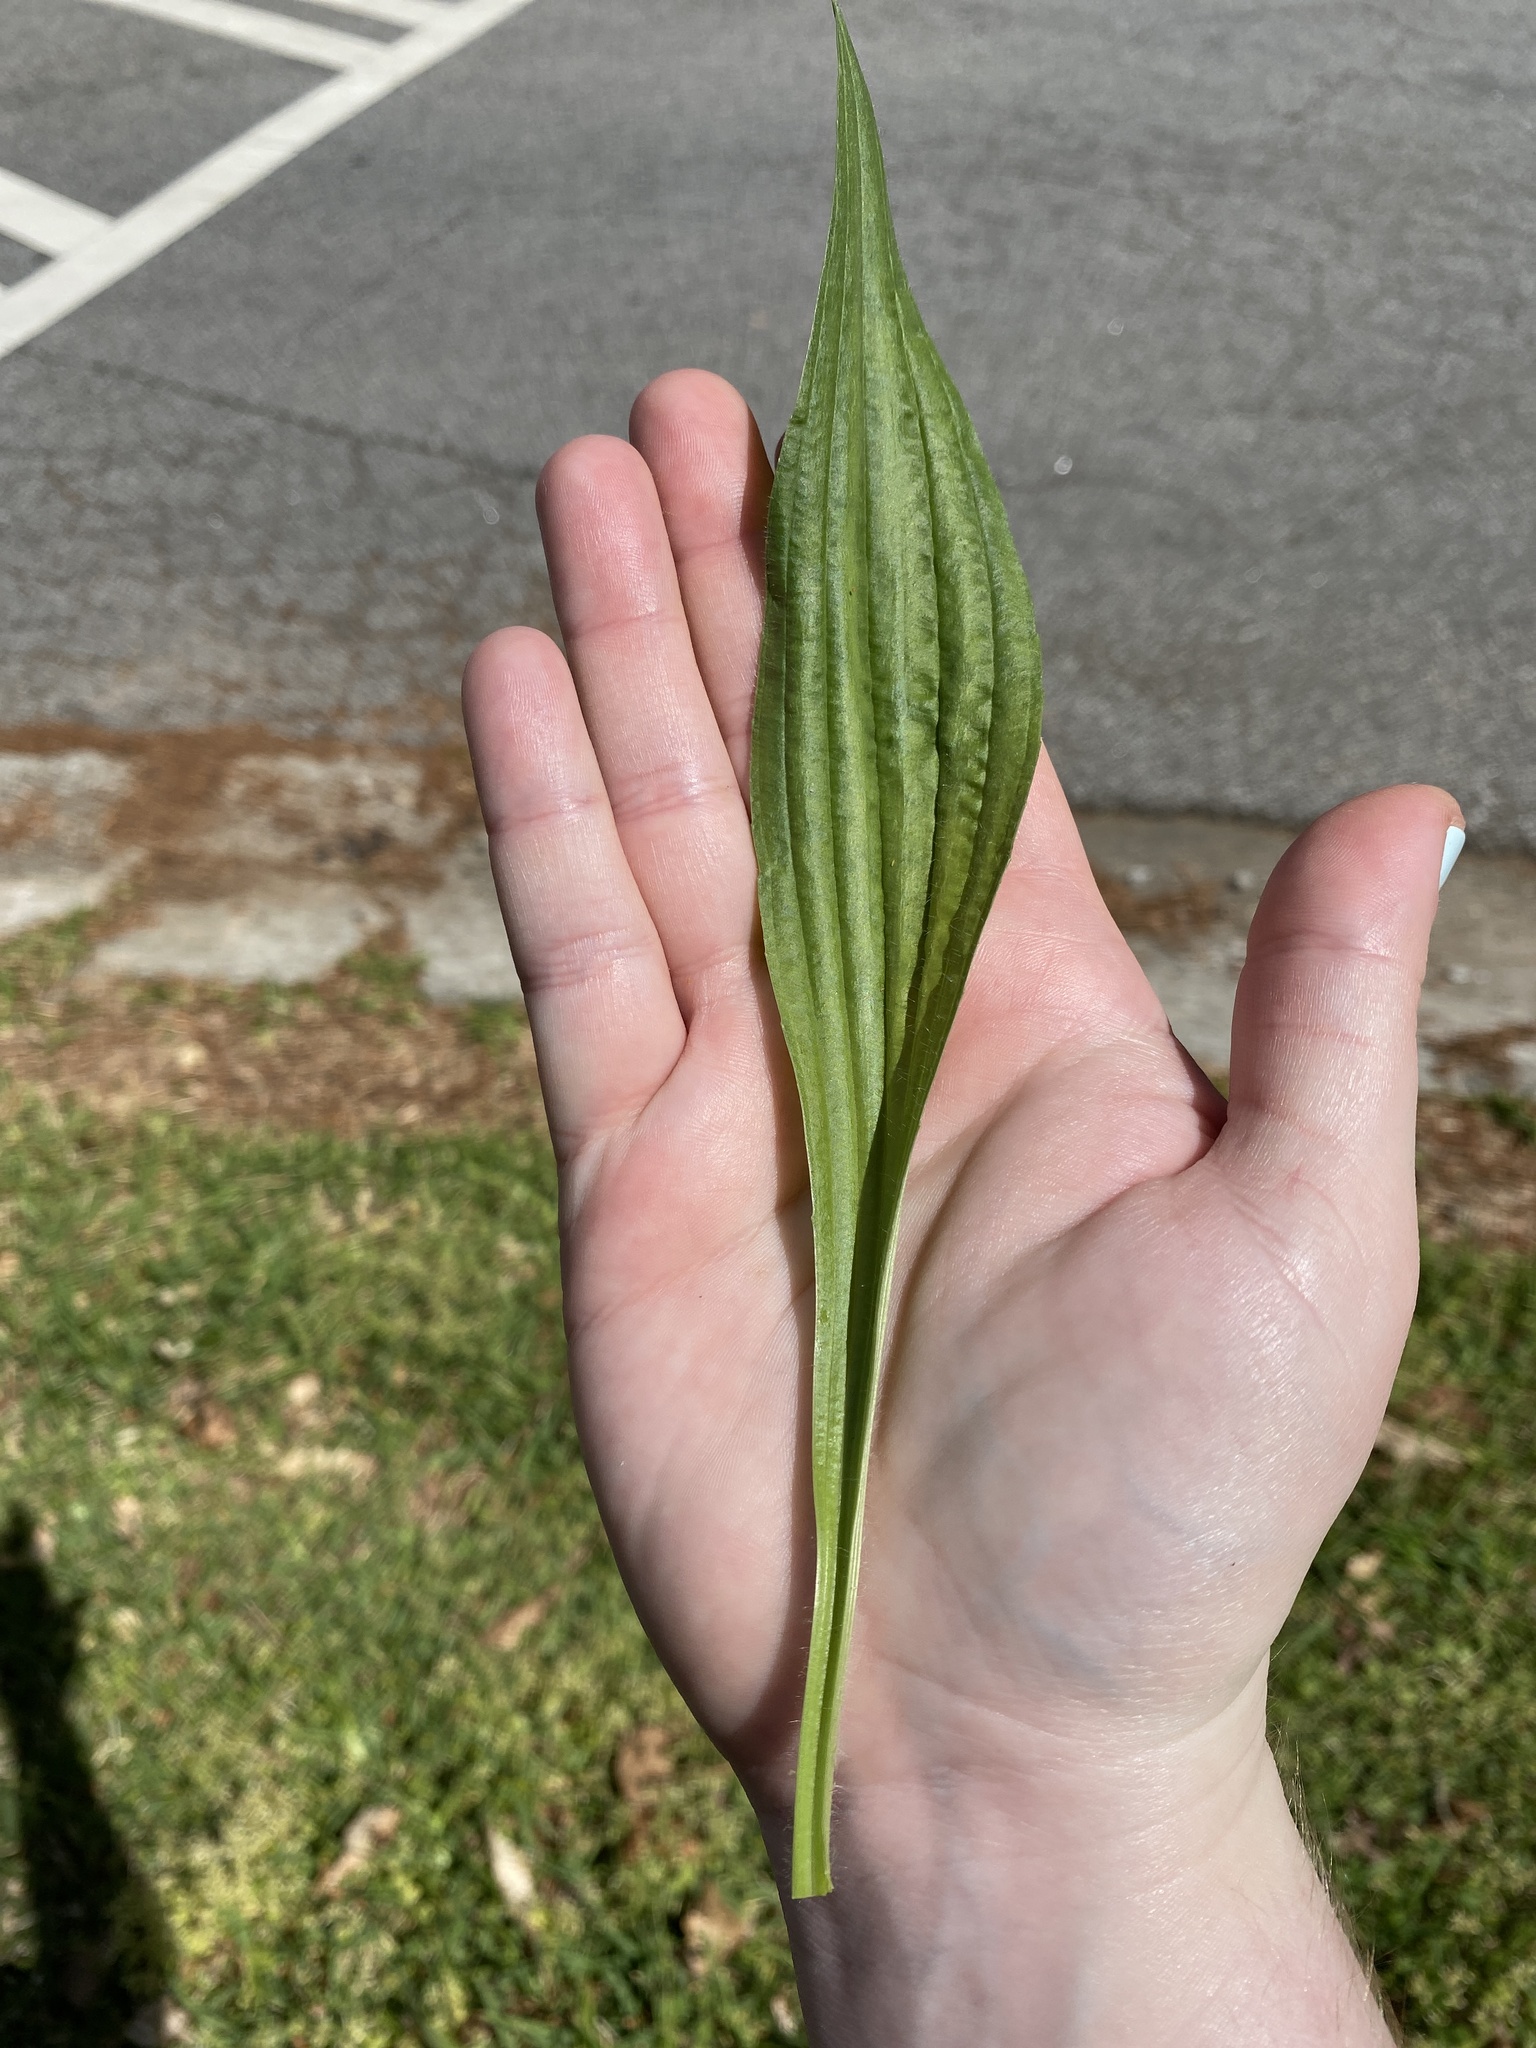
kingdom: Plantae
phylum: Tracheophyta
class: Magnoliopsida
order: Lamiales
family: Plantaginaceae
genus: Plantago
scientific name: Plantago lanceolata
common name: Ribwort plantain
